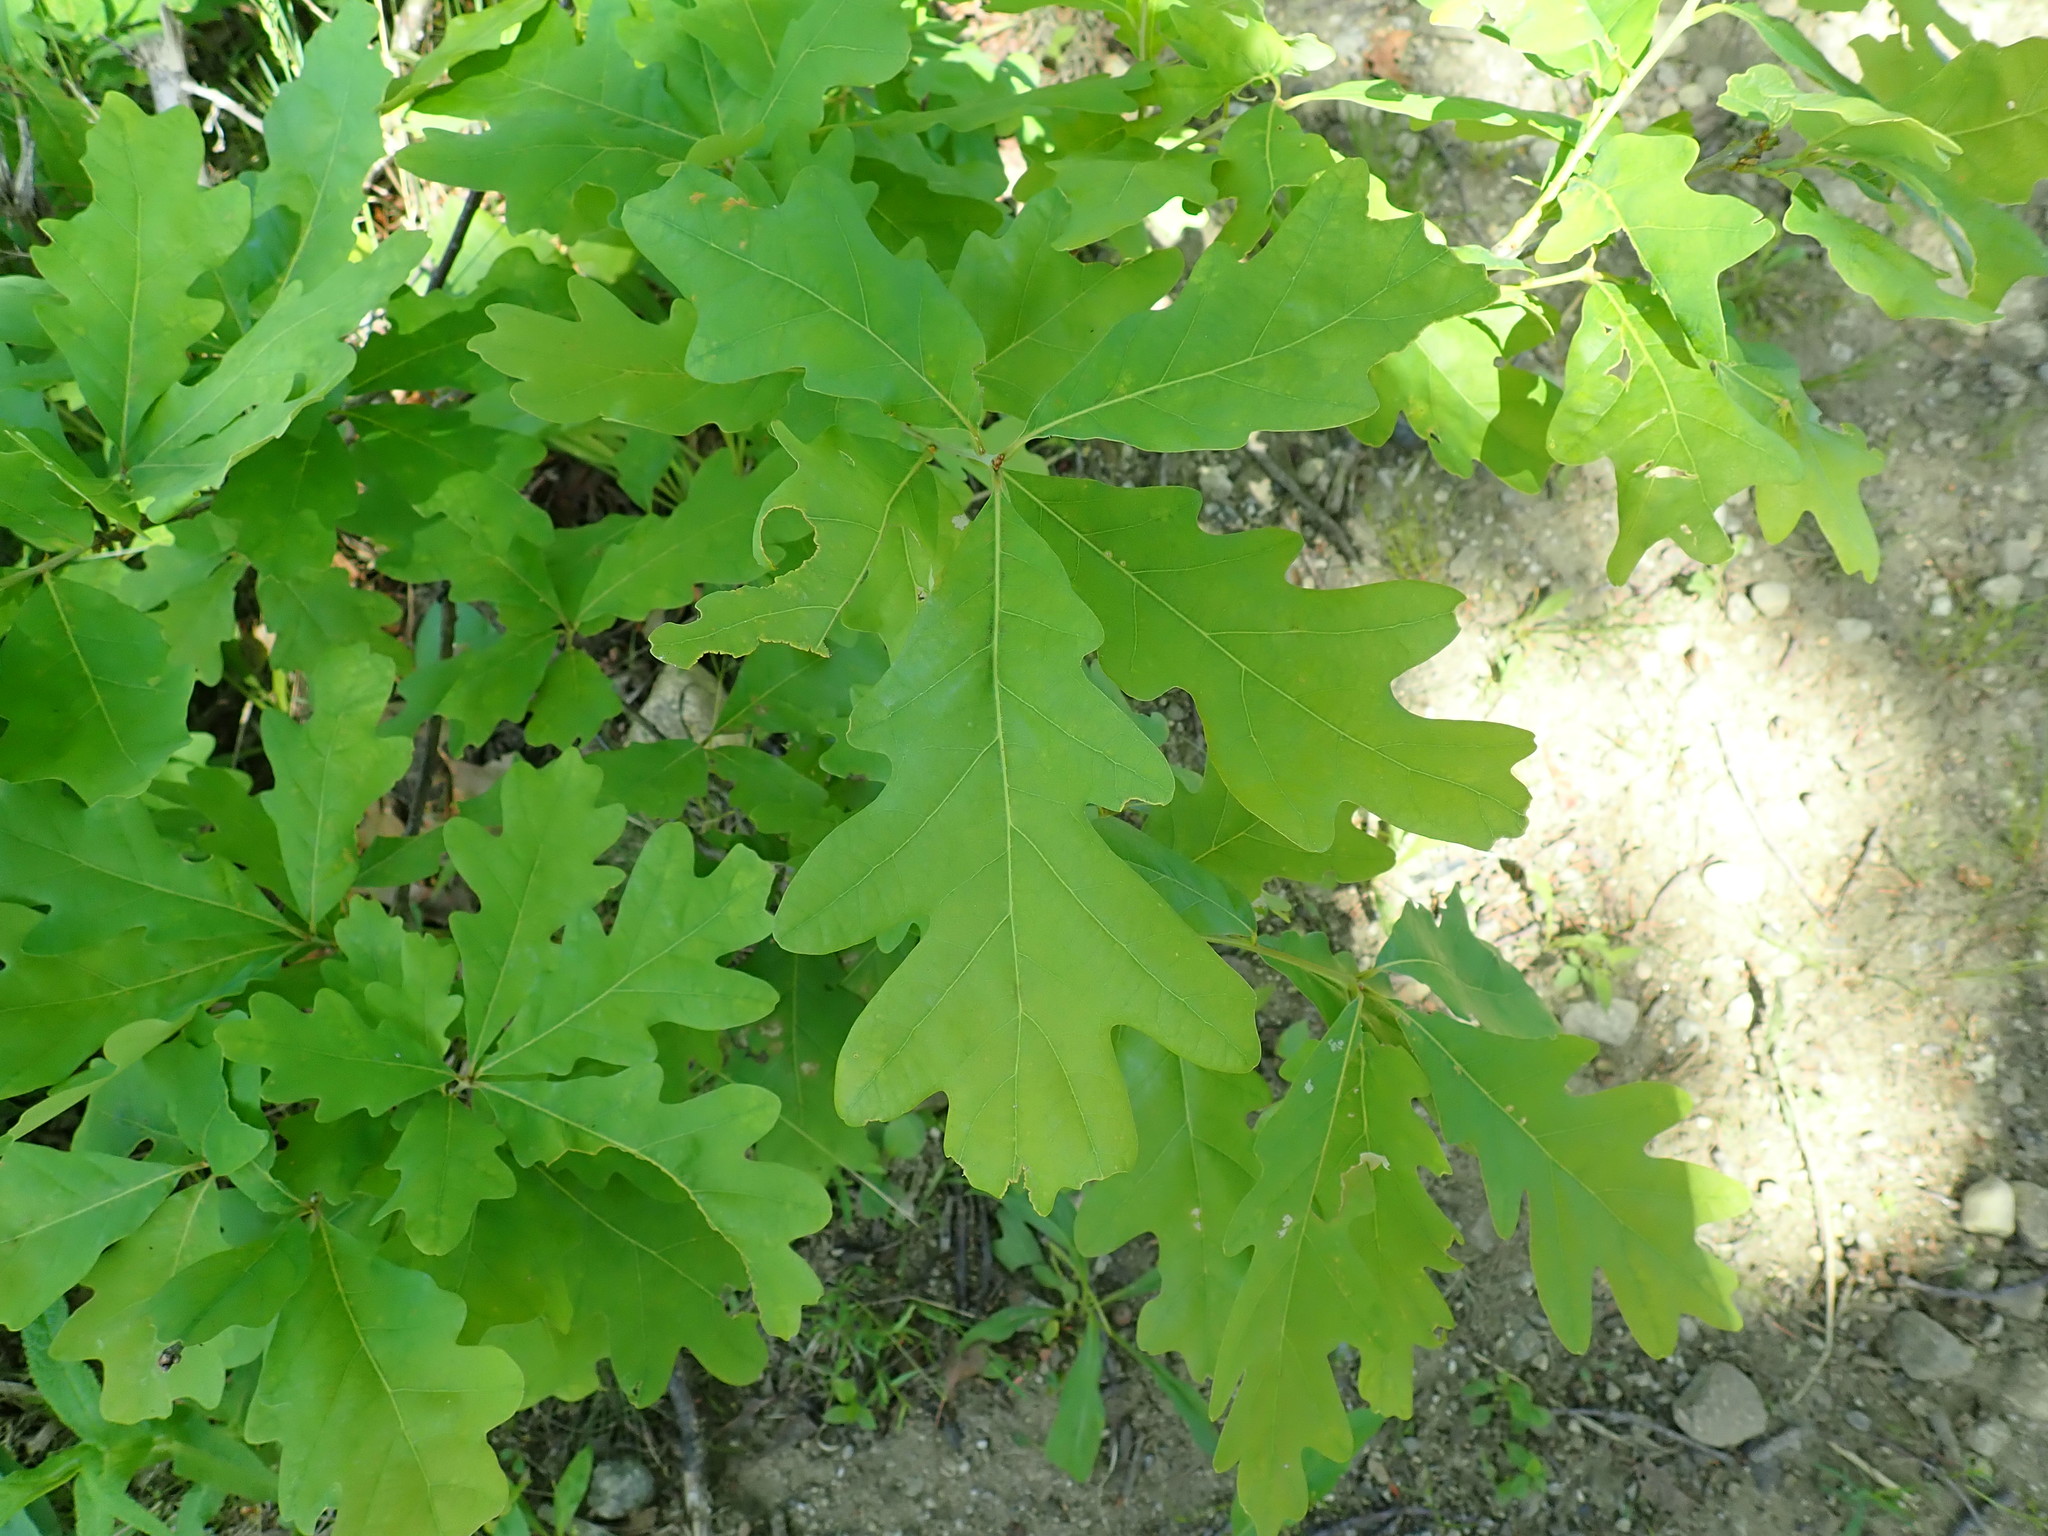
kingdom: Plantae
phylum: Tracheophyta
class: Magnoliopsida
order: Fagales
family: Fagaceae
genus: Quercus
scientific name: Quercus alba
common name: White oak
